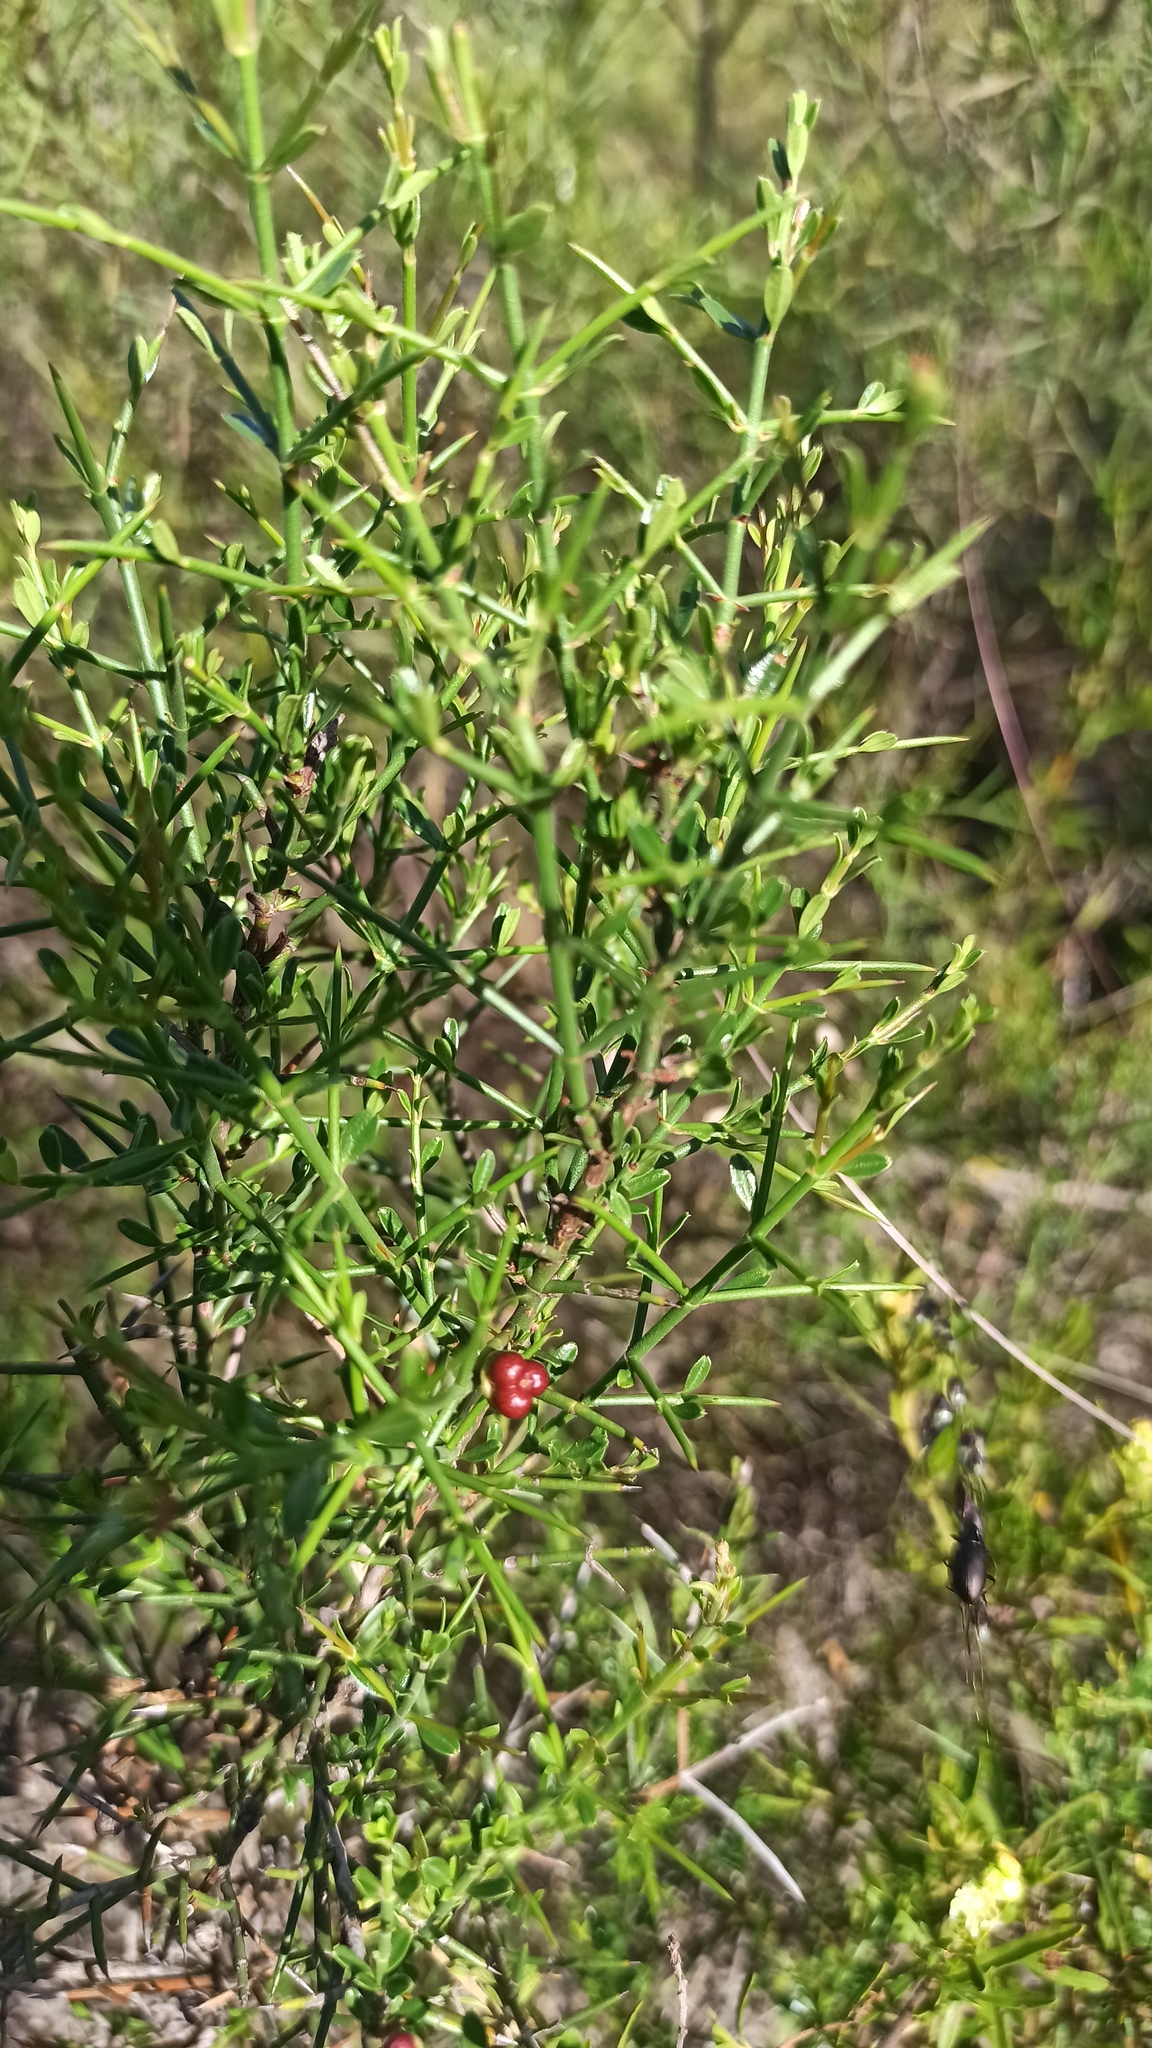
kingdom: Plantae
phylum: Tracheophyta
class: Magnoliopsida
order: Rosales
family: Rhamnaceae
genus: Discaria
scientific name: Discaria americana
